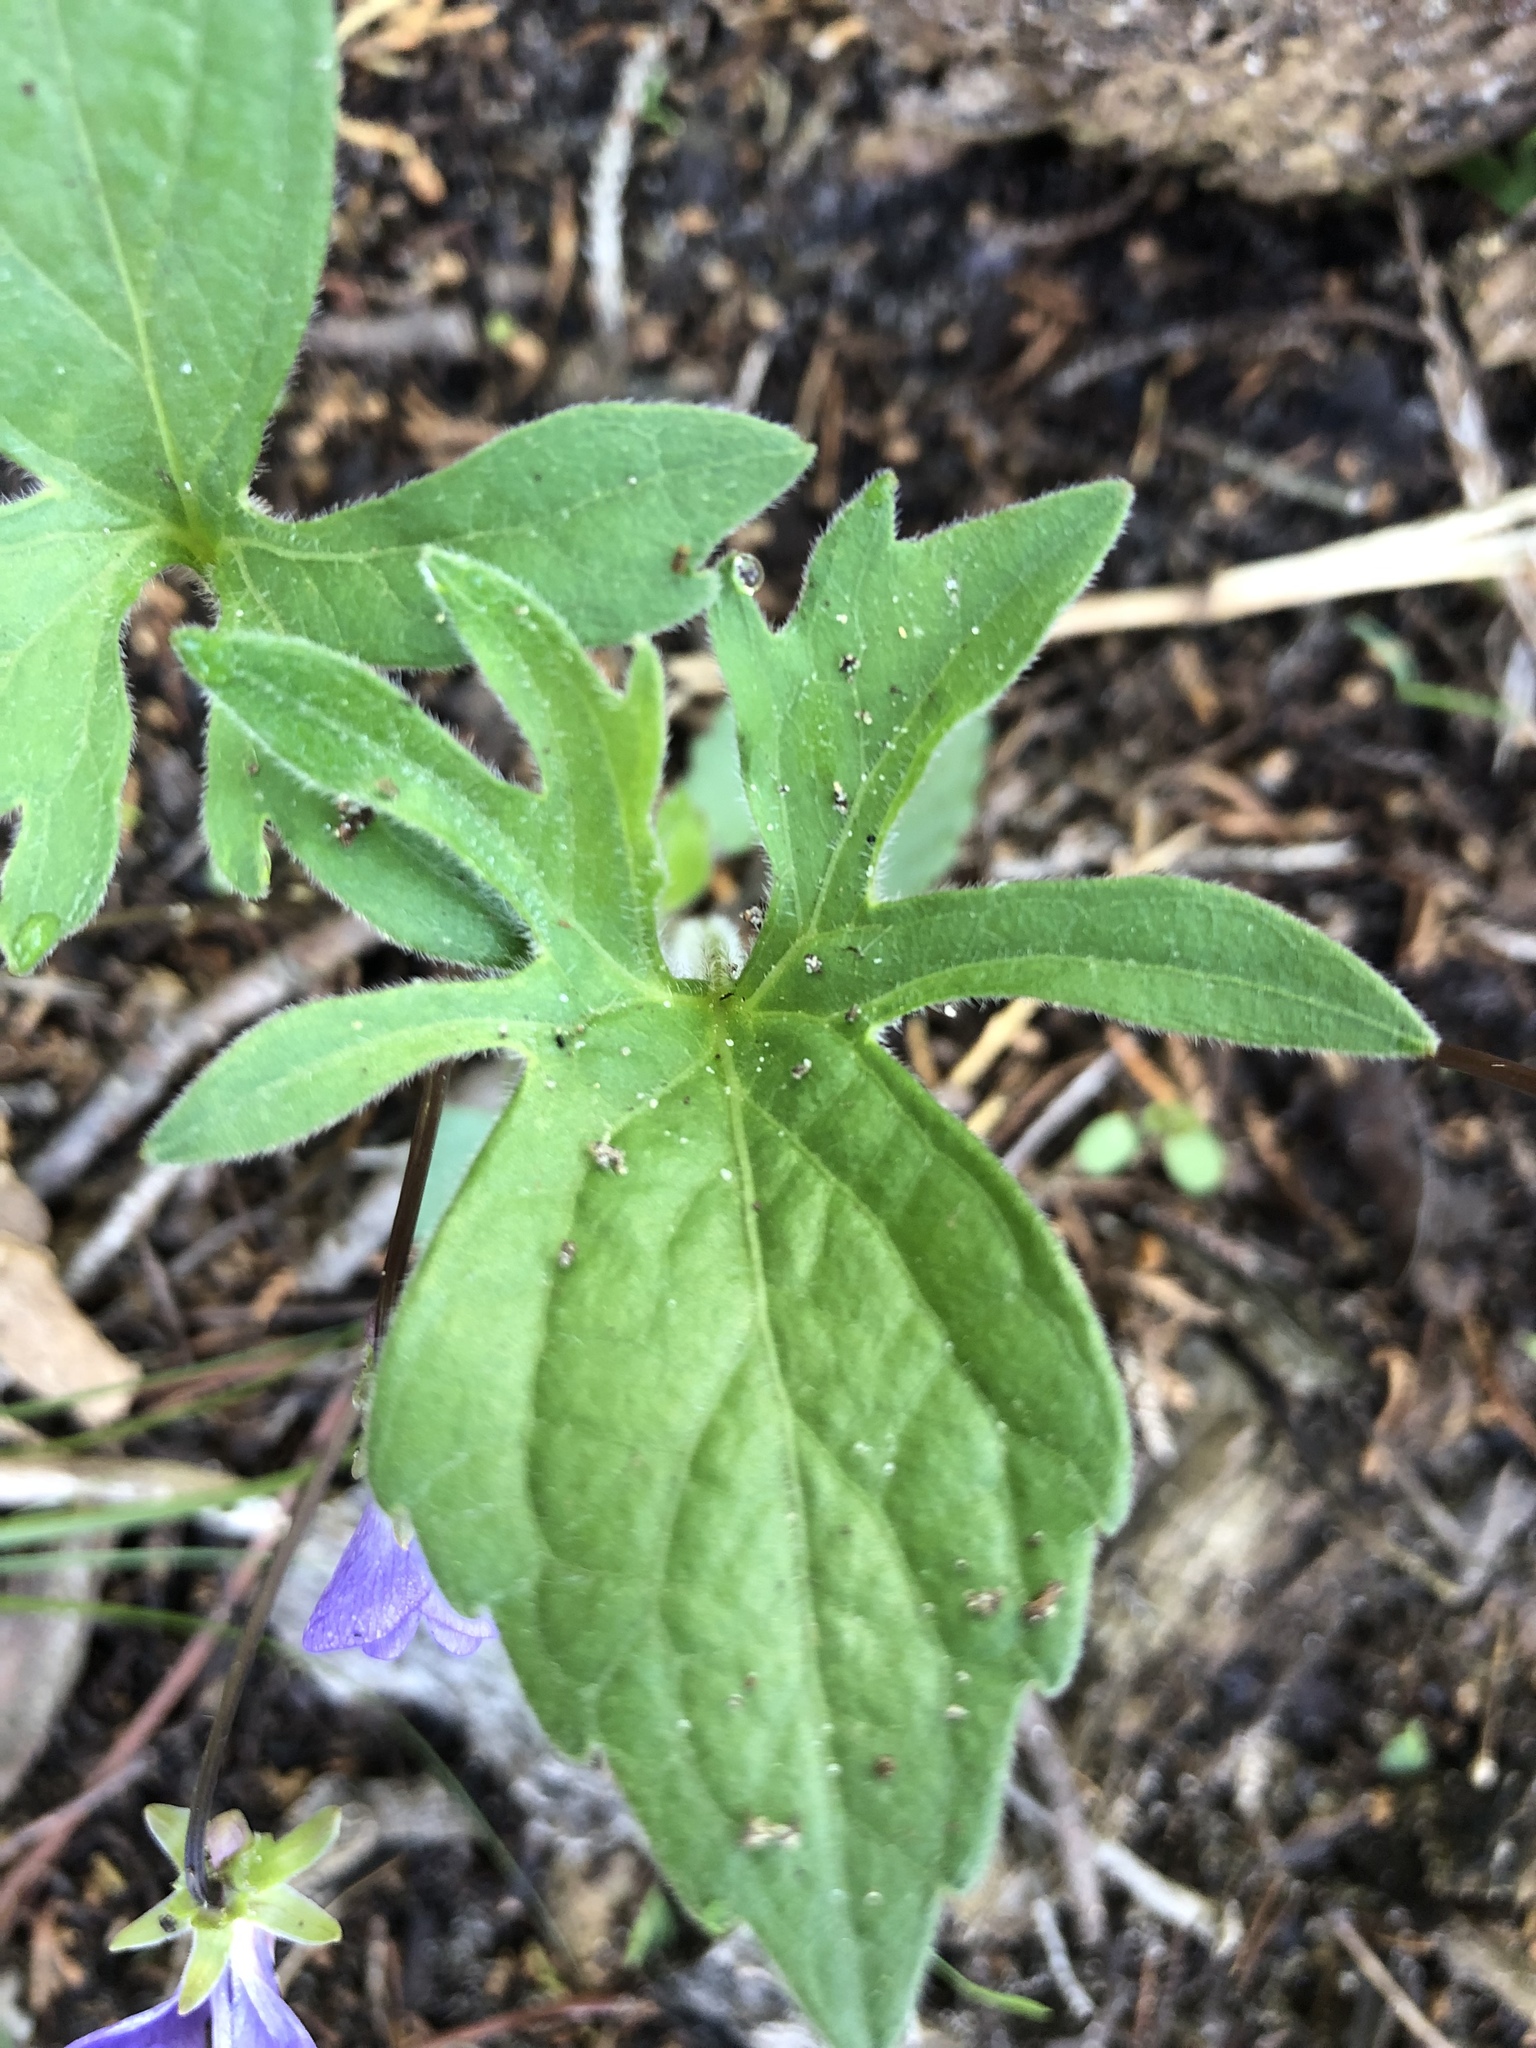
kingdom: Plantae
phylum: Tracheophyta
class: Magnoliopsida
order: Malpighiales
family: Violaceae
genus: Viola
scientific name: Viola palmata
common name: Early blue violet
